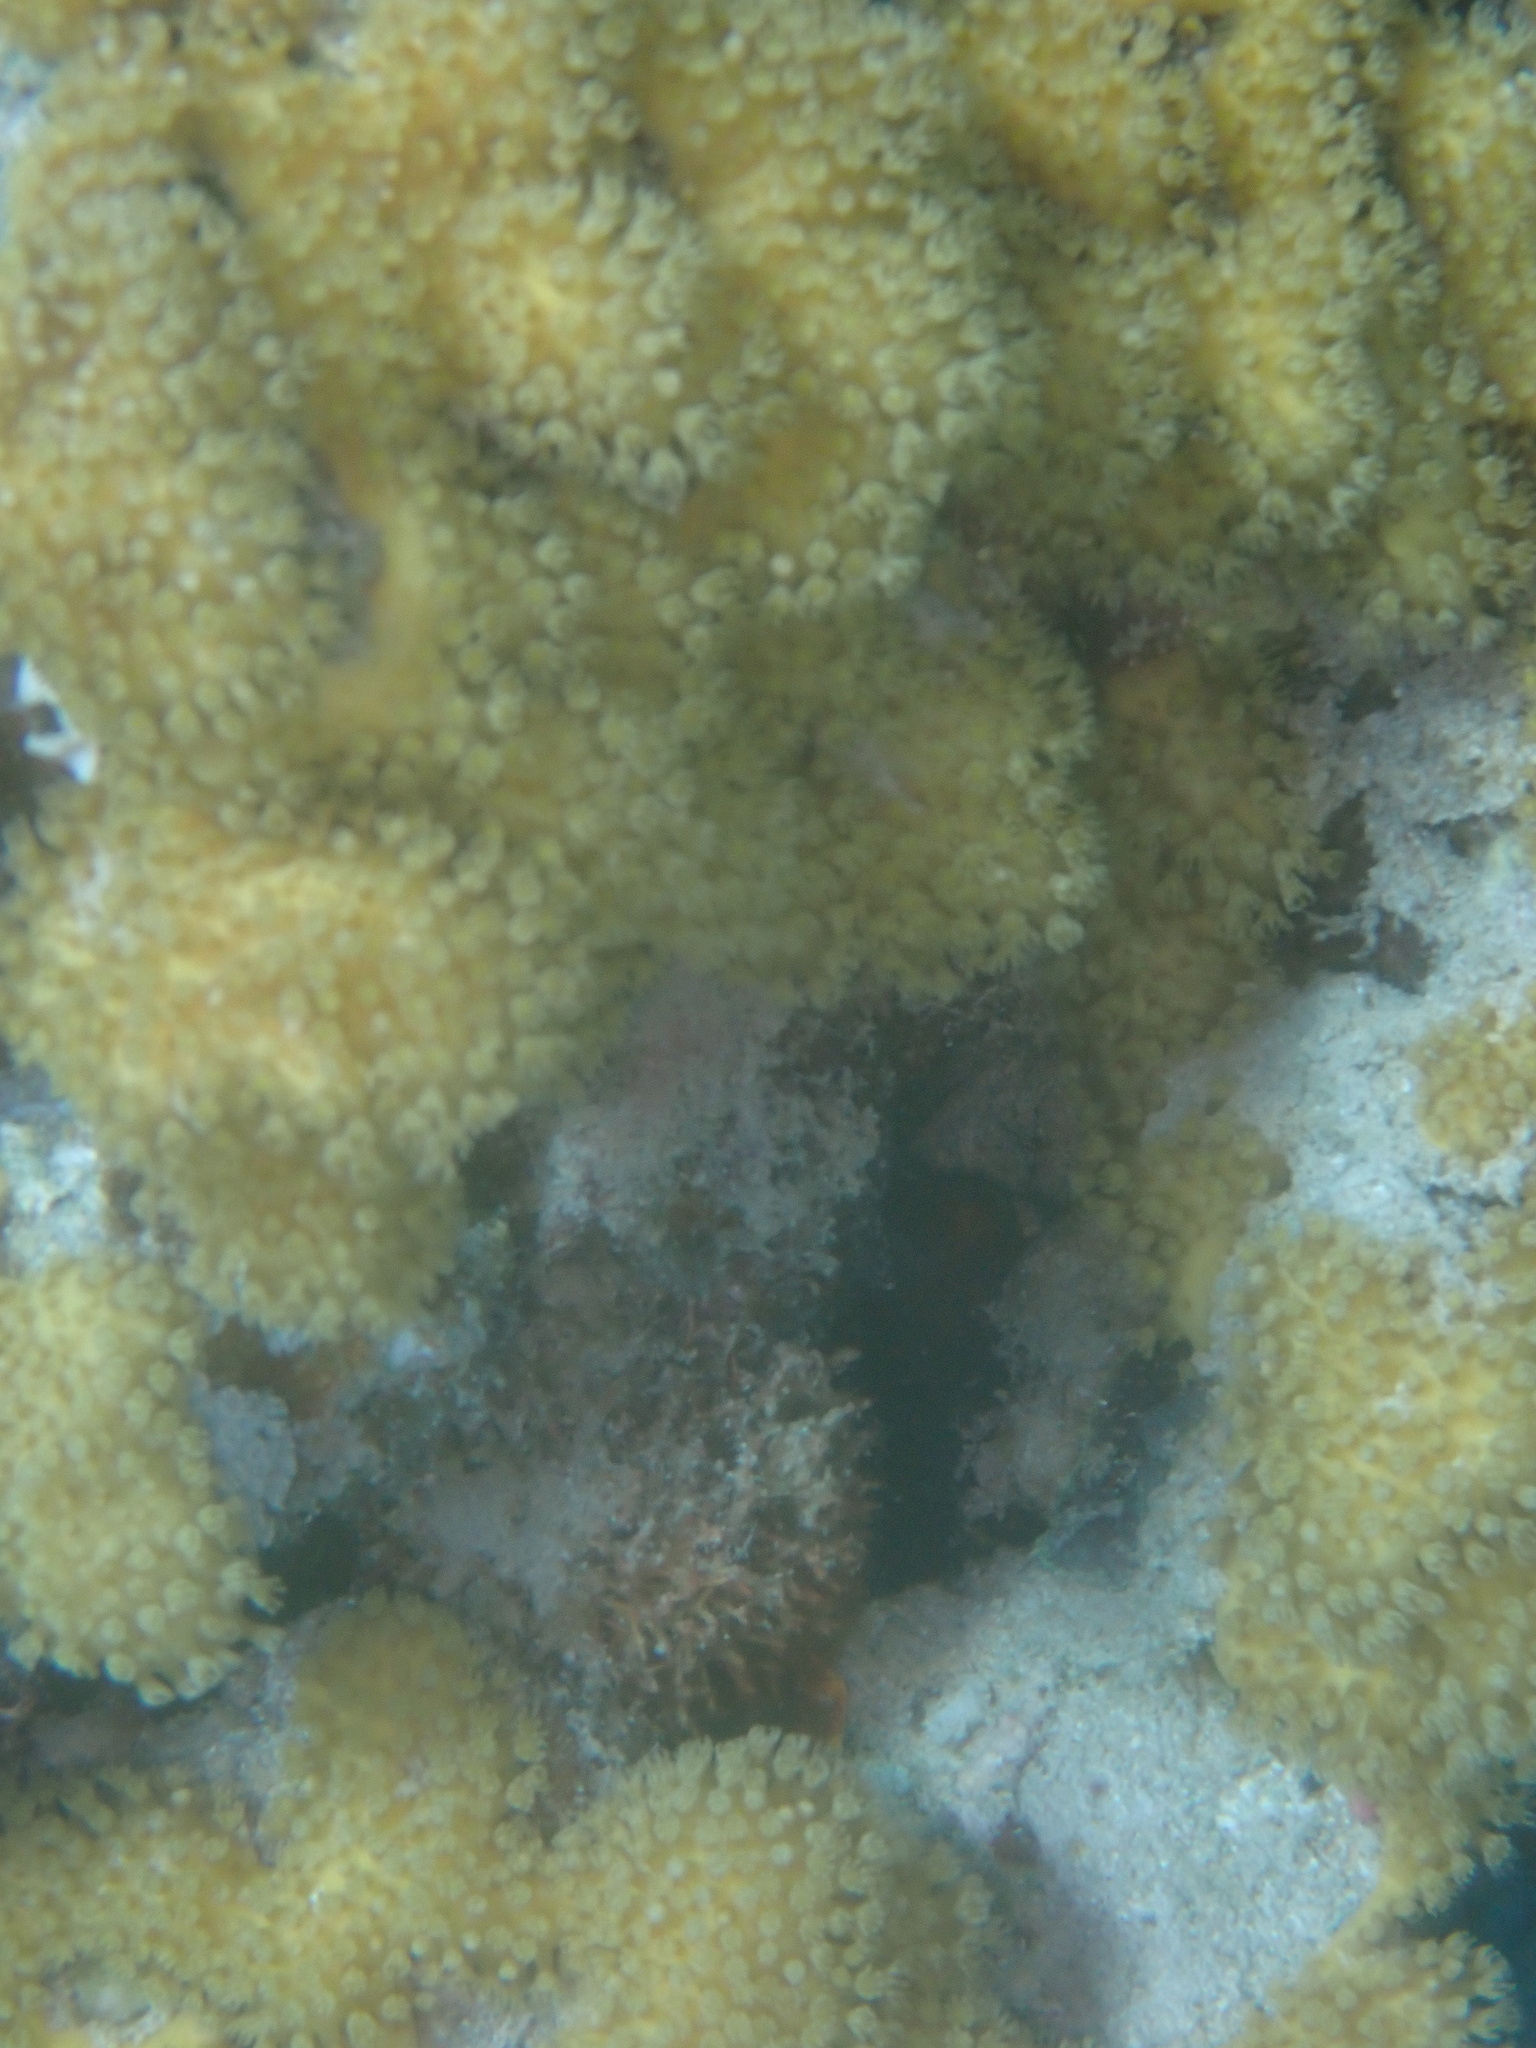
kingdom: Animalia
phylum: Cnidaria
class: Anthozoa
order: Malacalcyonacea
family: Lemnaliadae
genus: Rhytisma
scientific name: Rhytisma fulvum
